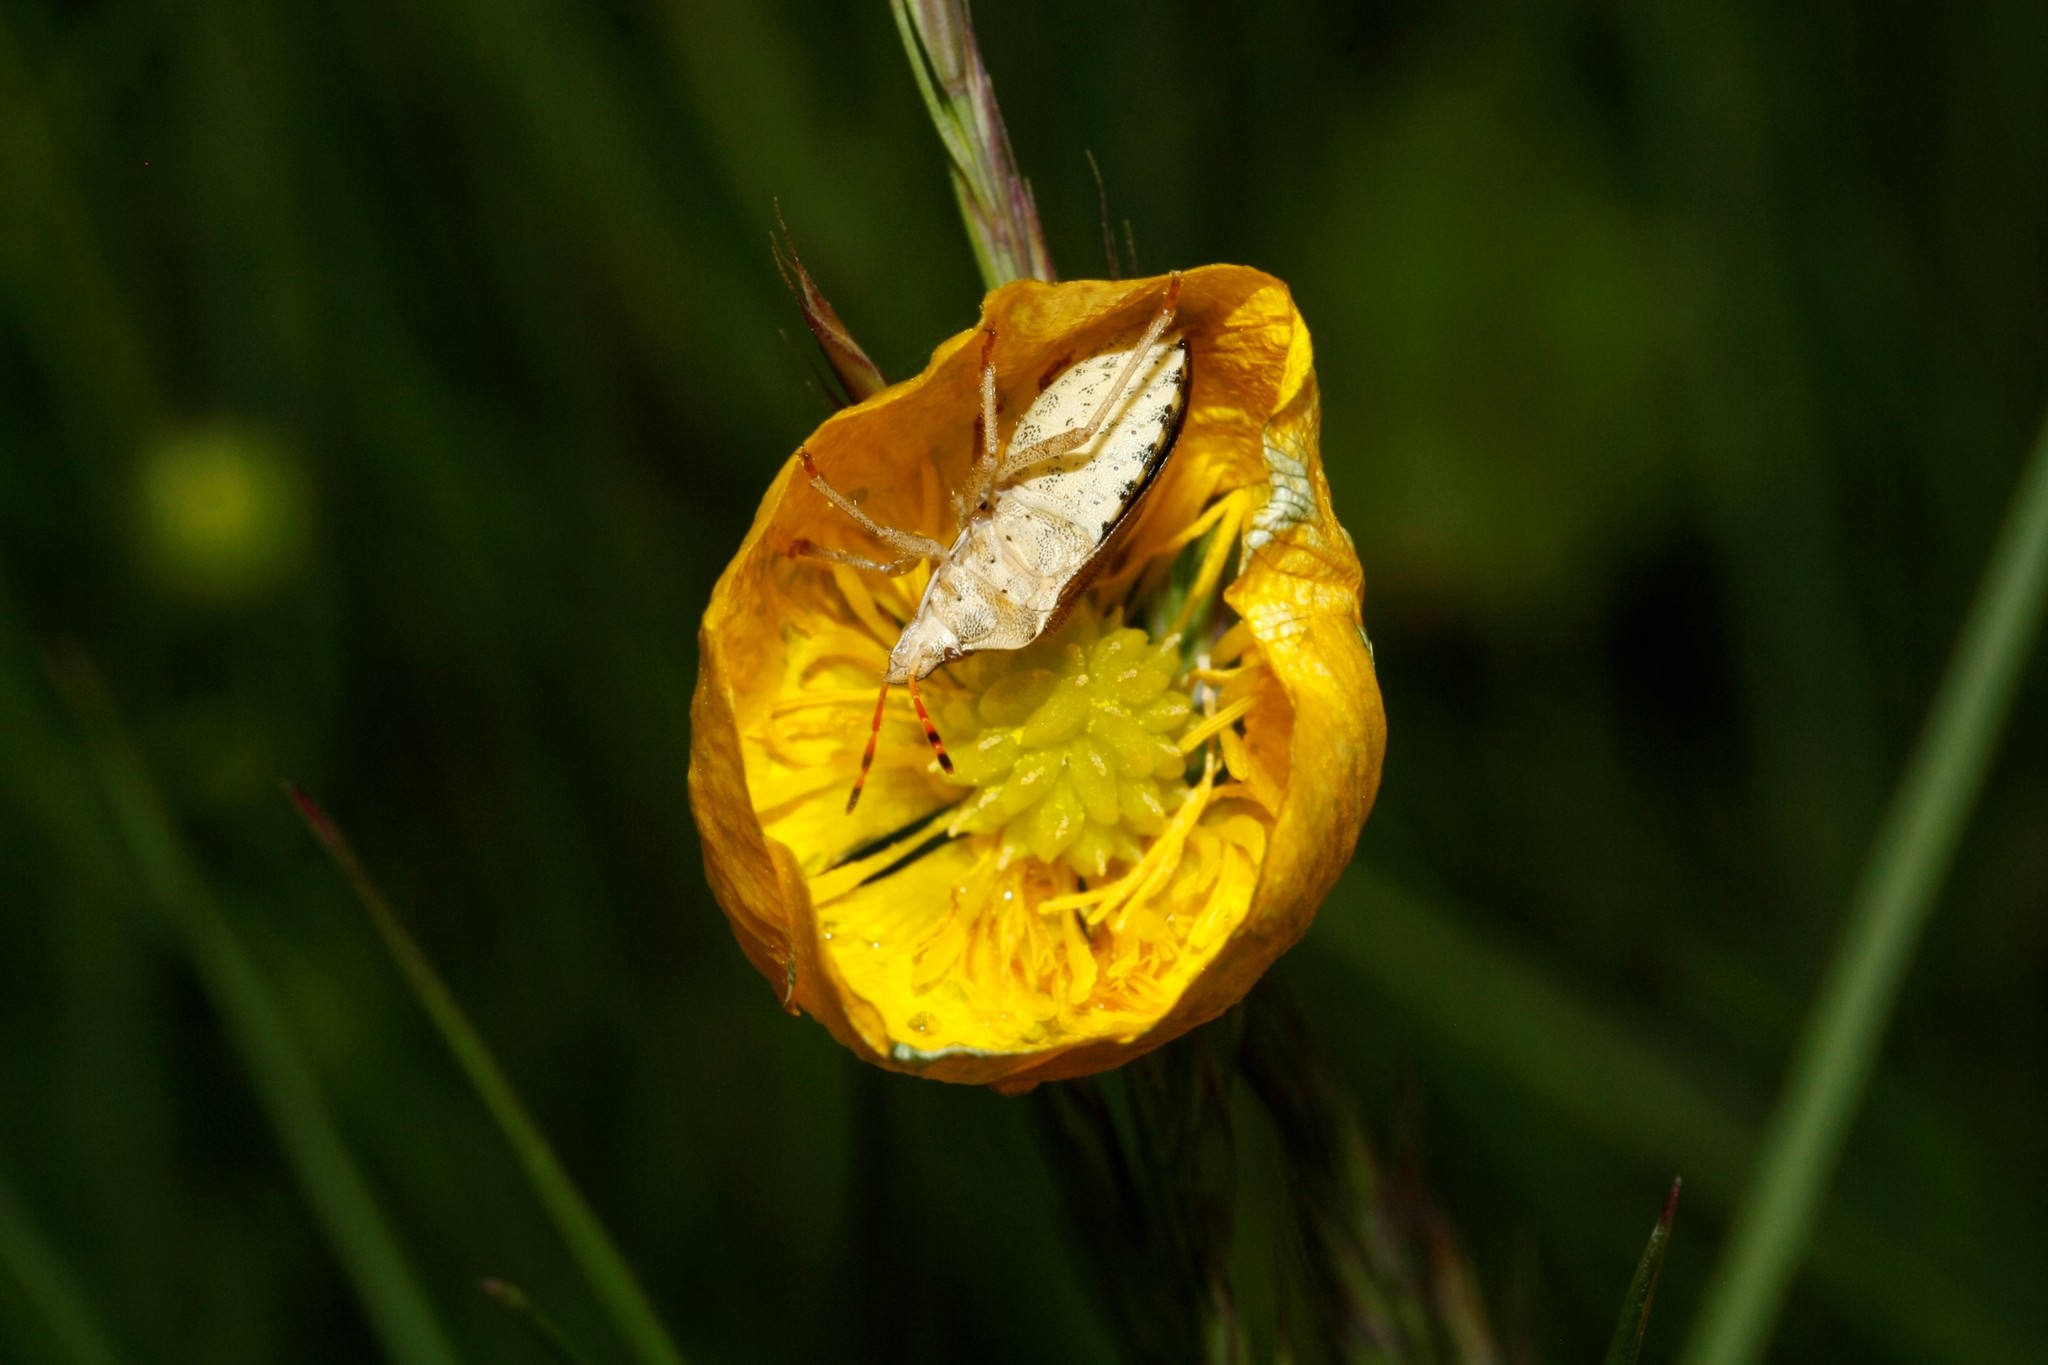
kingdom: Animalia
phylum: Arthropoda
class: Insecta
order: Hemiptera
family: Pentatomidae
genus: Holcostethus
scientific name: Holcostethus strictus
